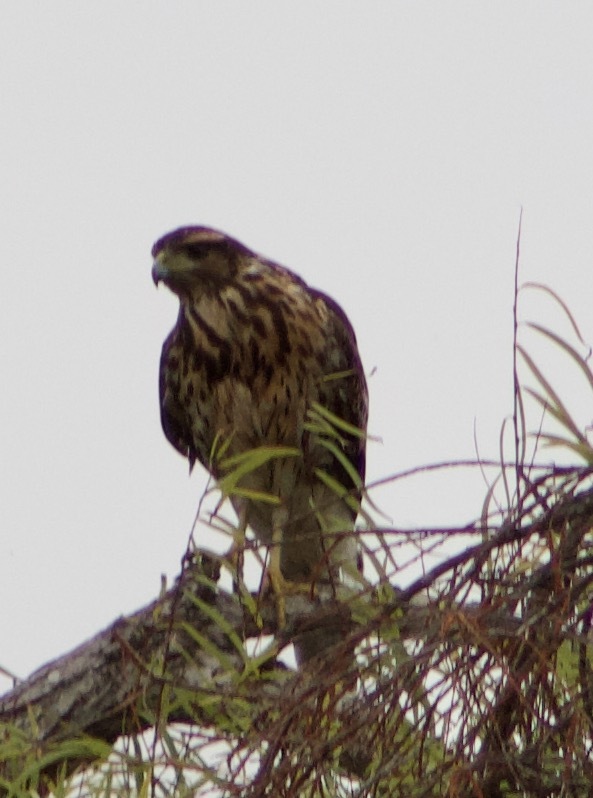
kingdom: Animalia
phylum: Chordata
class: Aves
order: Accipitriformes
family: Accipitridae
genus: Parabuteo
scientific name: Parabuteo unicinctus
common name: Harris's hawk
